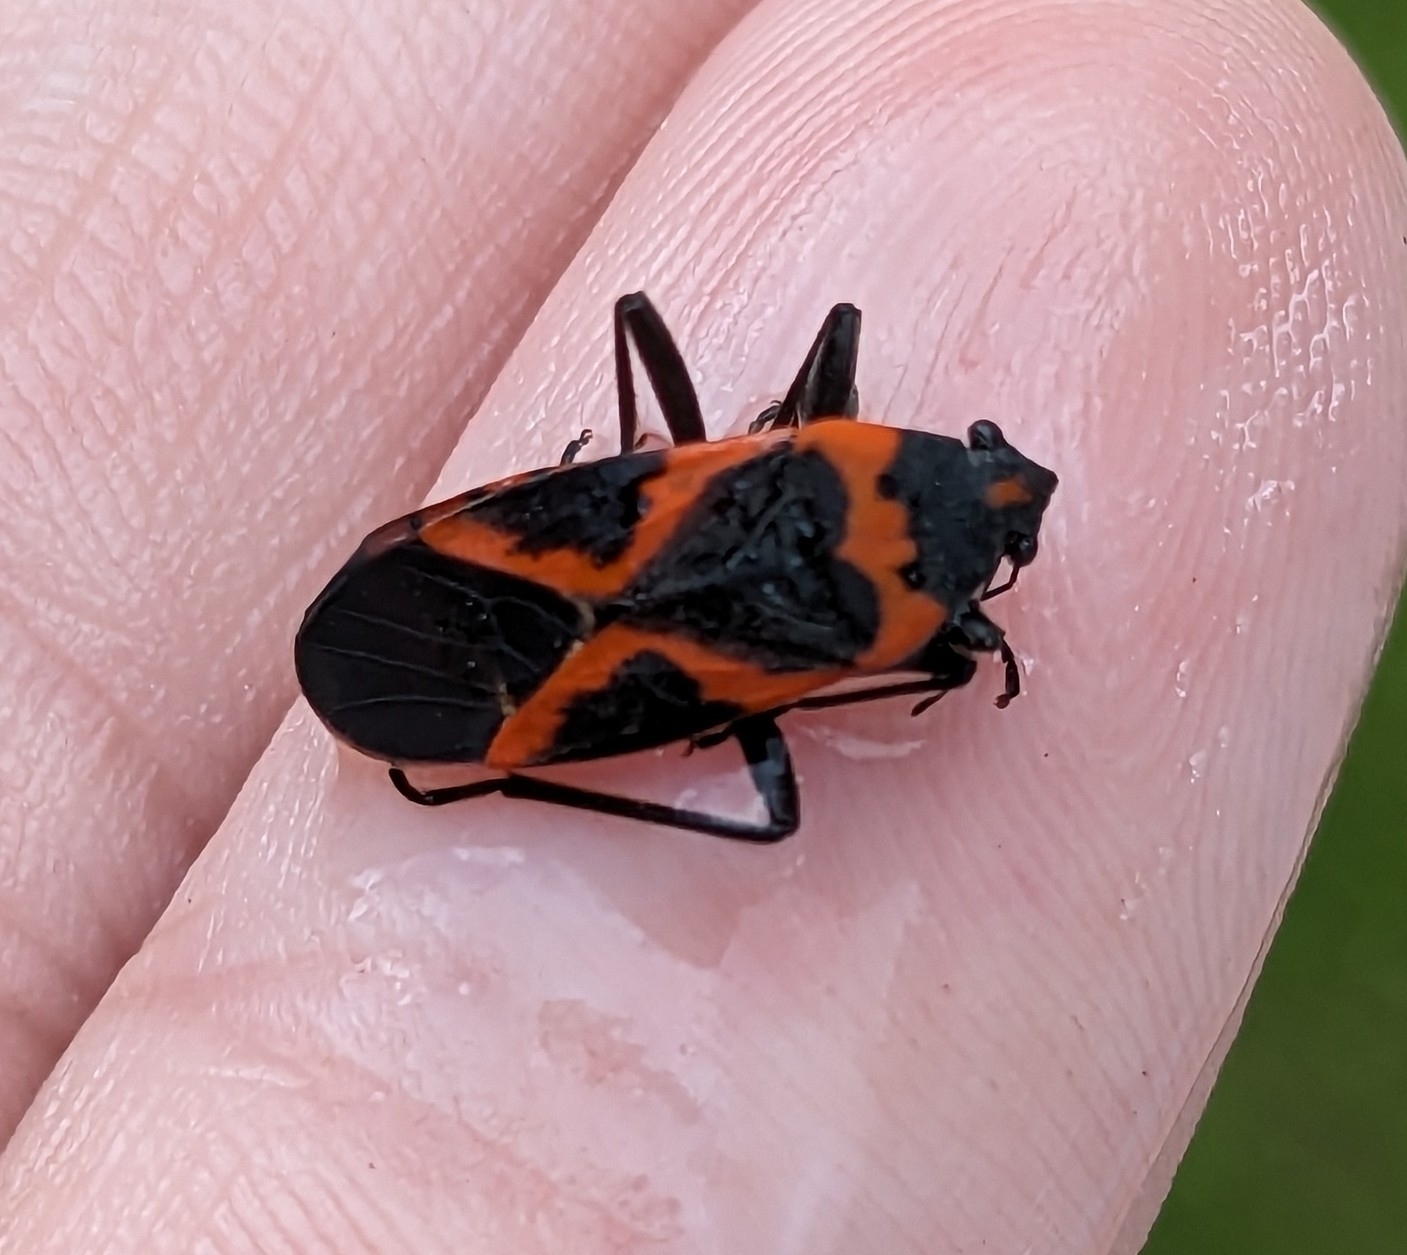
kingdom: Animalia
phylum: Arthropoda
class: Insecta
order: Hemiptera
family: Lygaeidae
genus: Lygaeus
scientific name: Lygaeus kalmii
